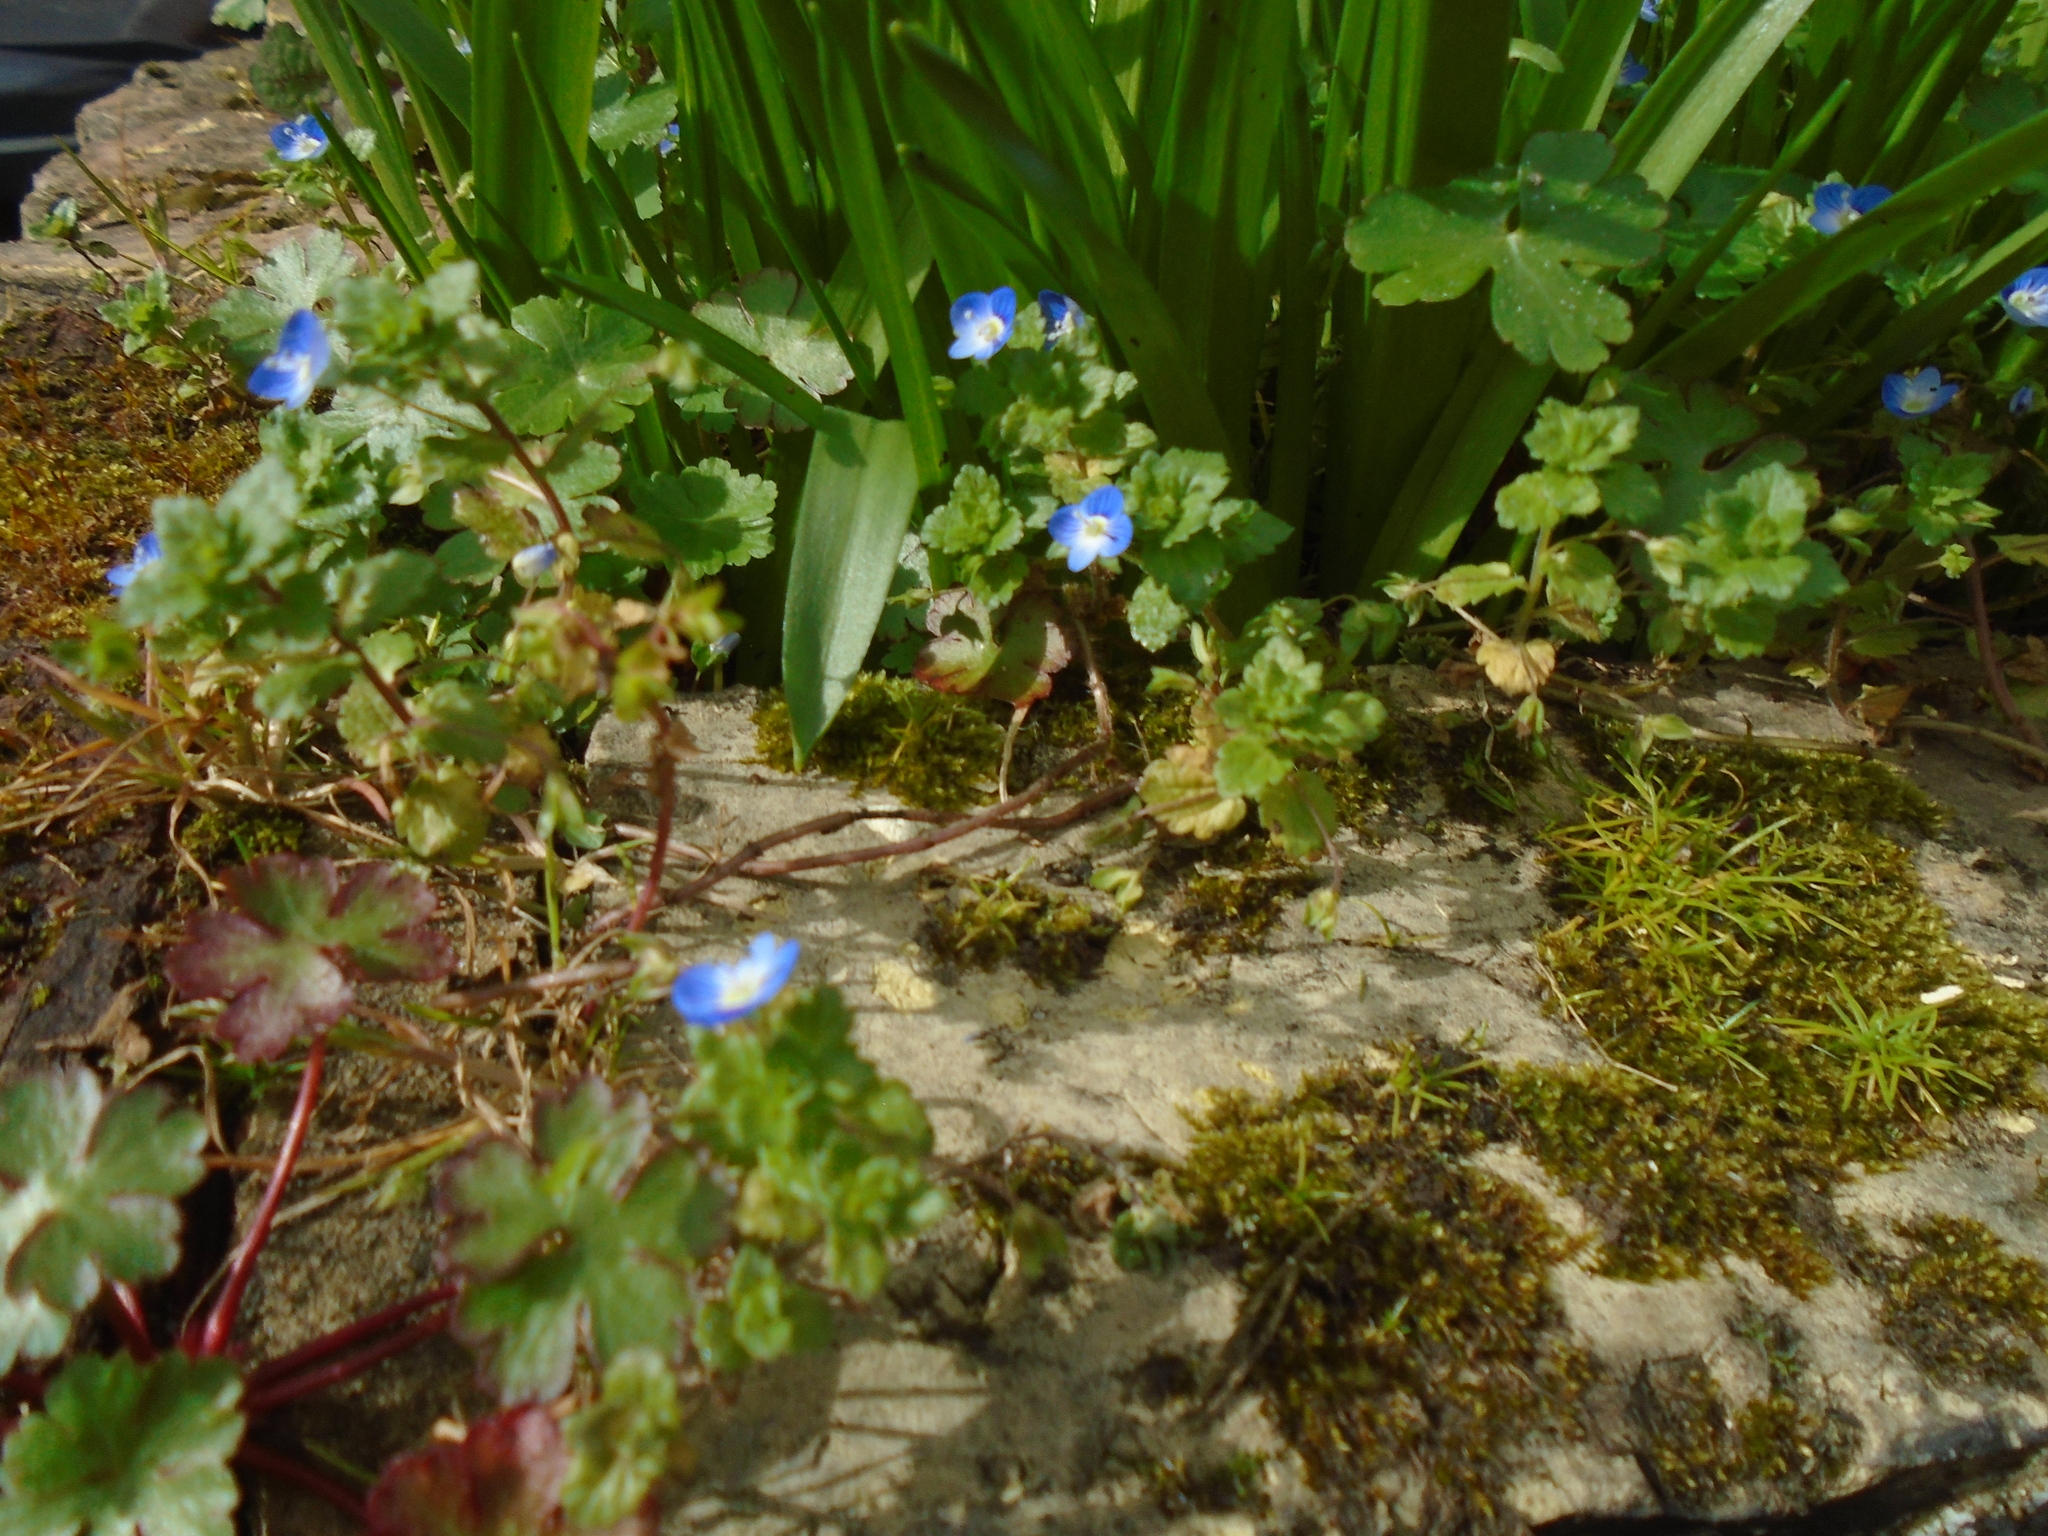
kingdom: Plantae
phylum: Tracheophyta
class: Magnoliopsida
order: Lamiales
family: Plantaginaceae
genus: Veronica
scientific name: Veronica persica
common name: Common field-speedwell
